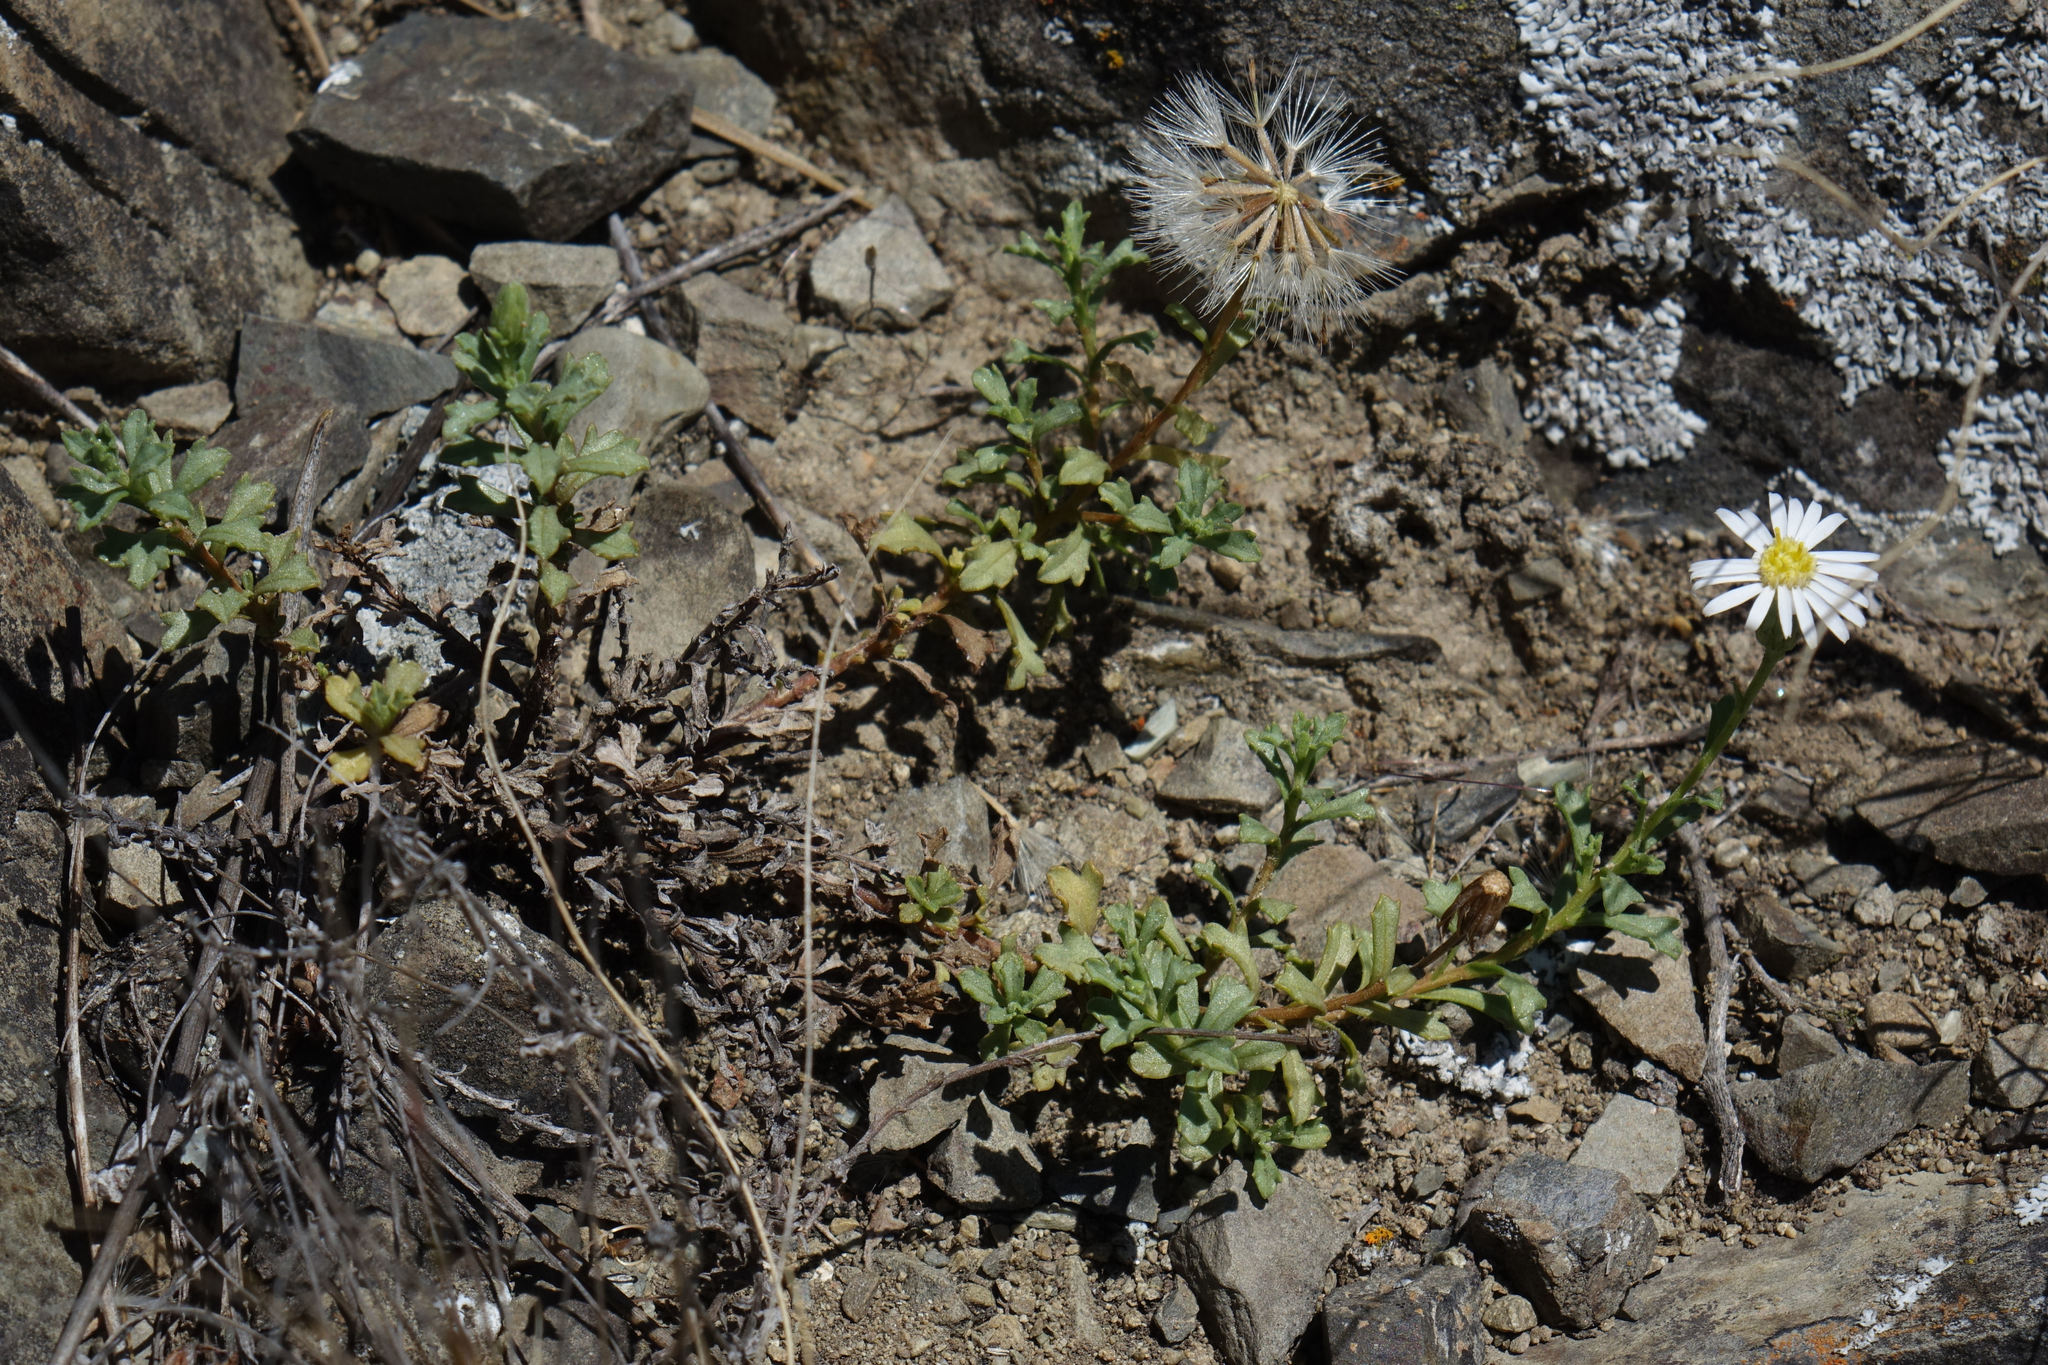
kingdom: Plantae
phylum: Tracheophyta
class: Magnoliopsida
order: Asterales
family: Asteraceae
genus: Vittadinia
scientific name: Vittadinia australis
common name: White fuzzweed
